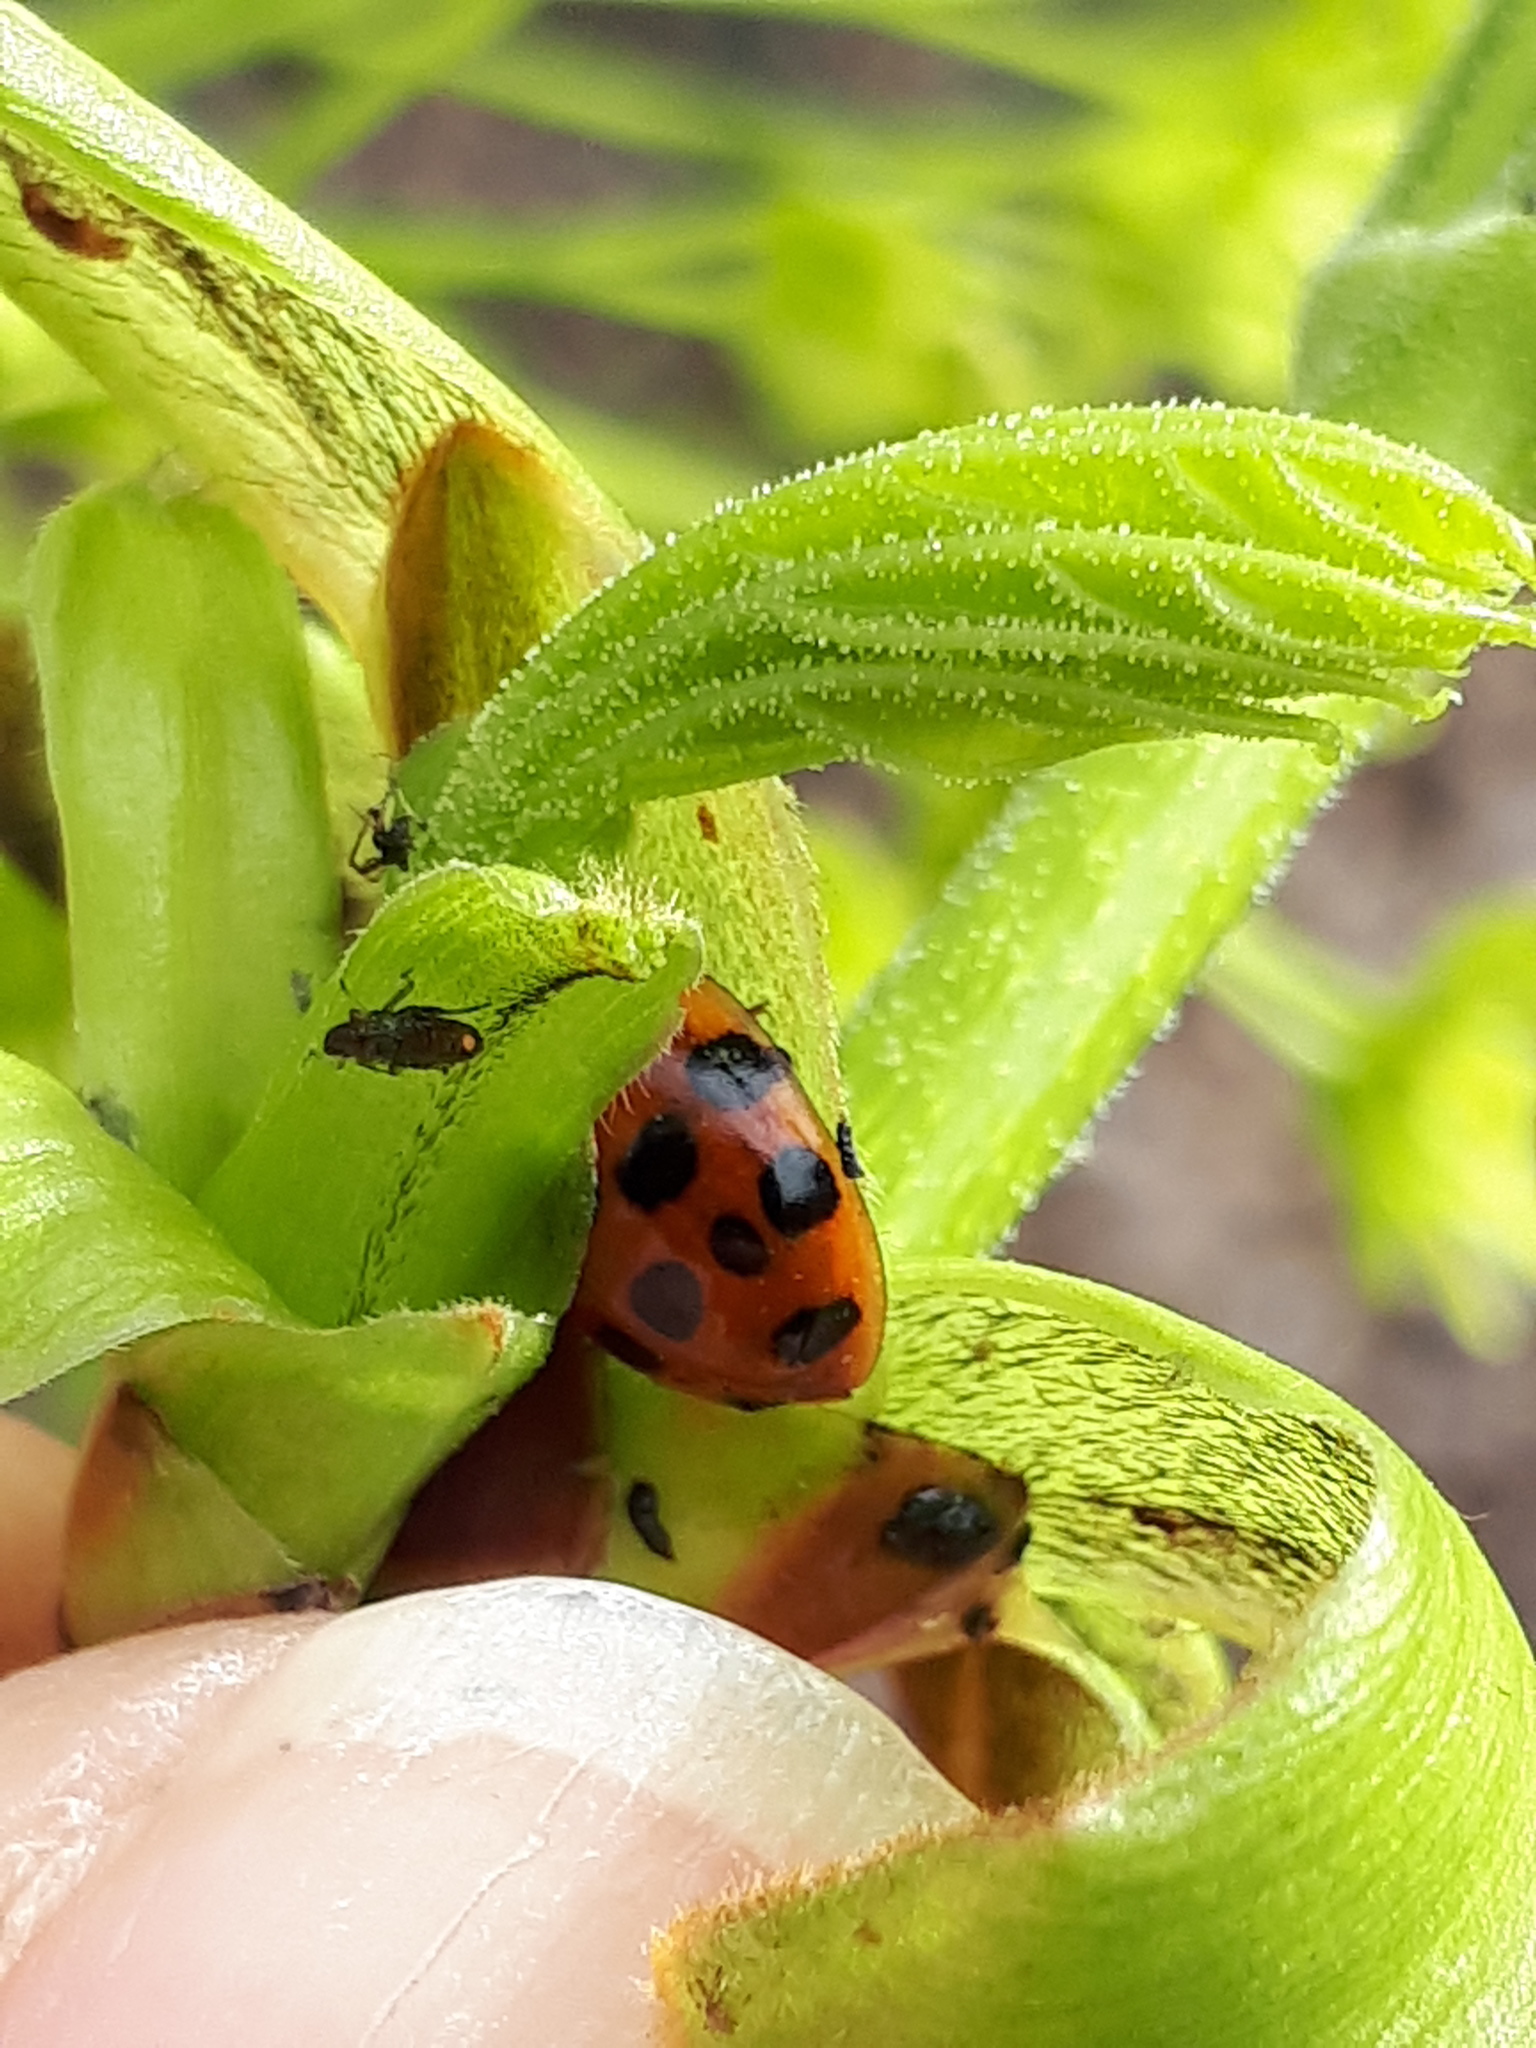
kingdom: Animalia
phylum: Arthropoda
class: Insecta
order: Coleoptera
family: Coccinellidae
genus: Harmonia
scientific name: Harmonia axyridis
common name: Harlequin ladybird
